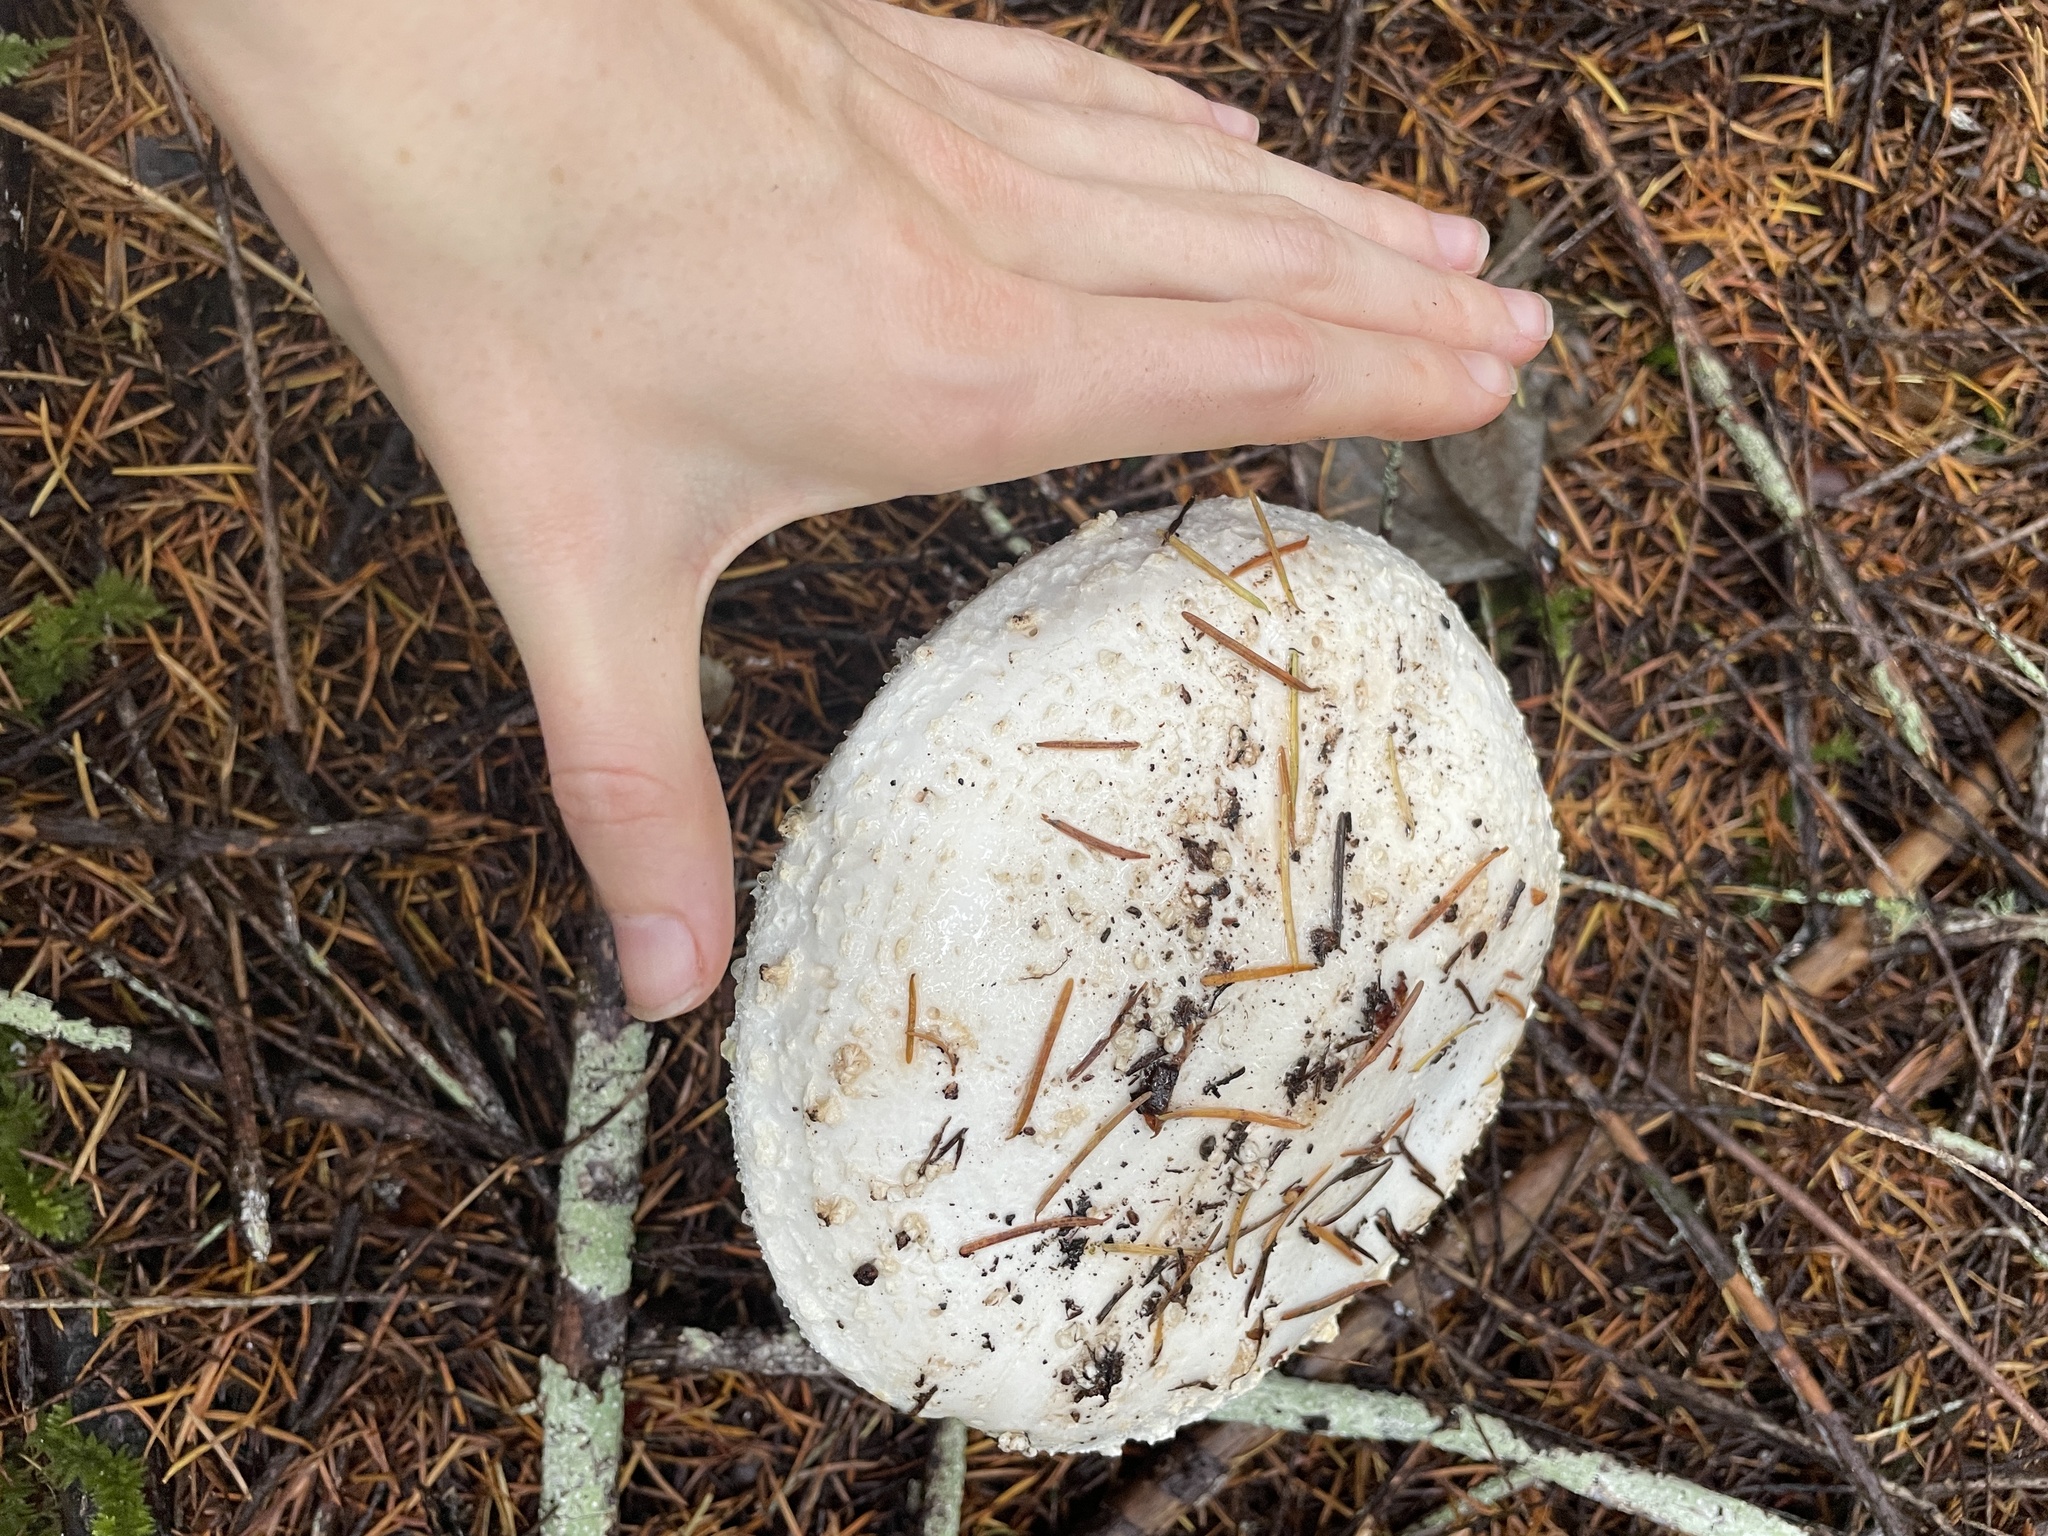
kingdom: Fungi
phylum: Basidiomycota
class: Agaricomycetes
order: Agaricales
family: Amanitaceae
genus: Amanita
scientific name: Amanita smithiana
